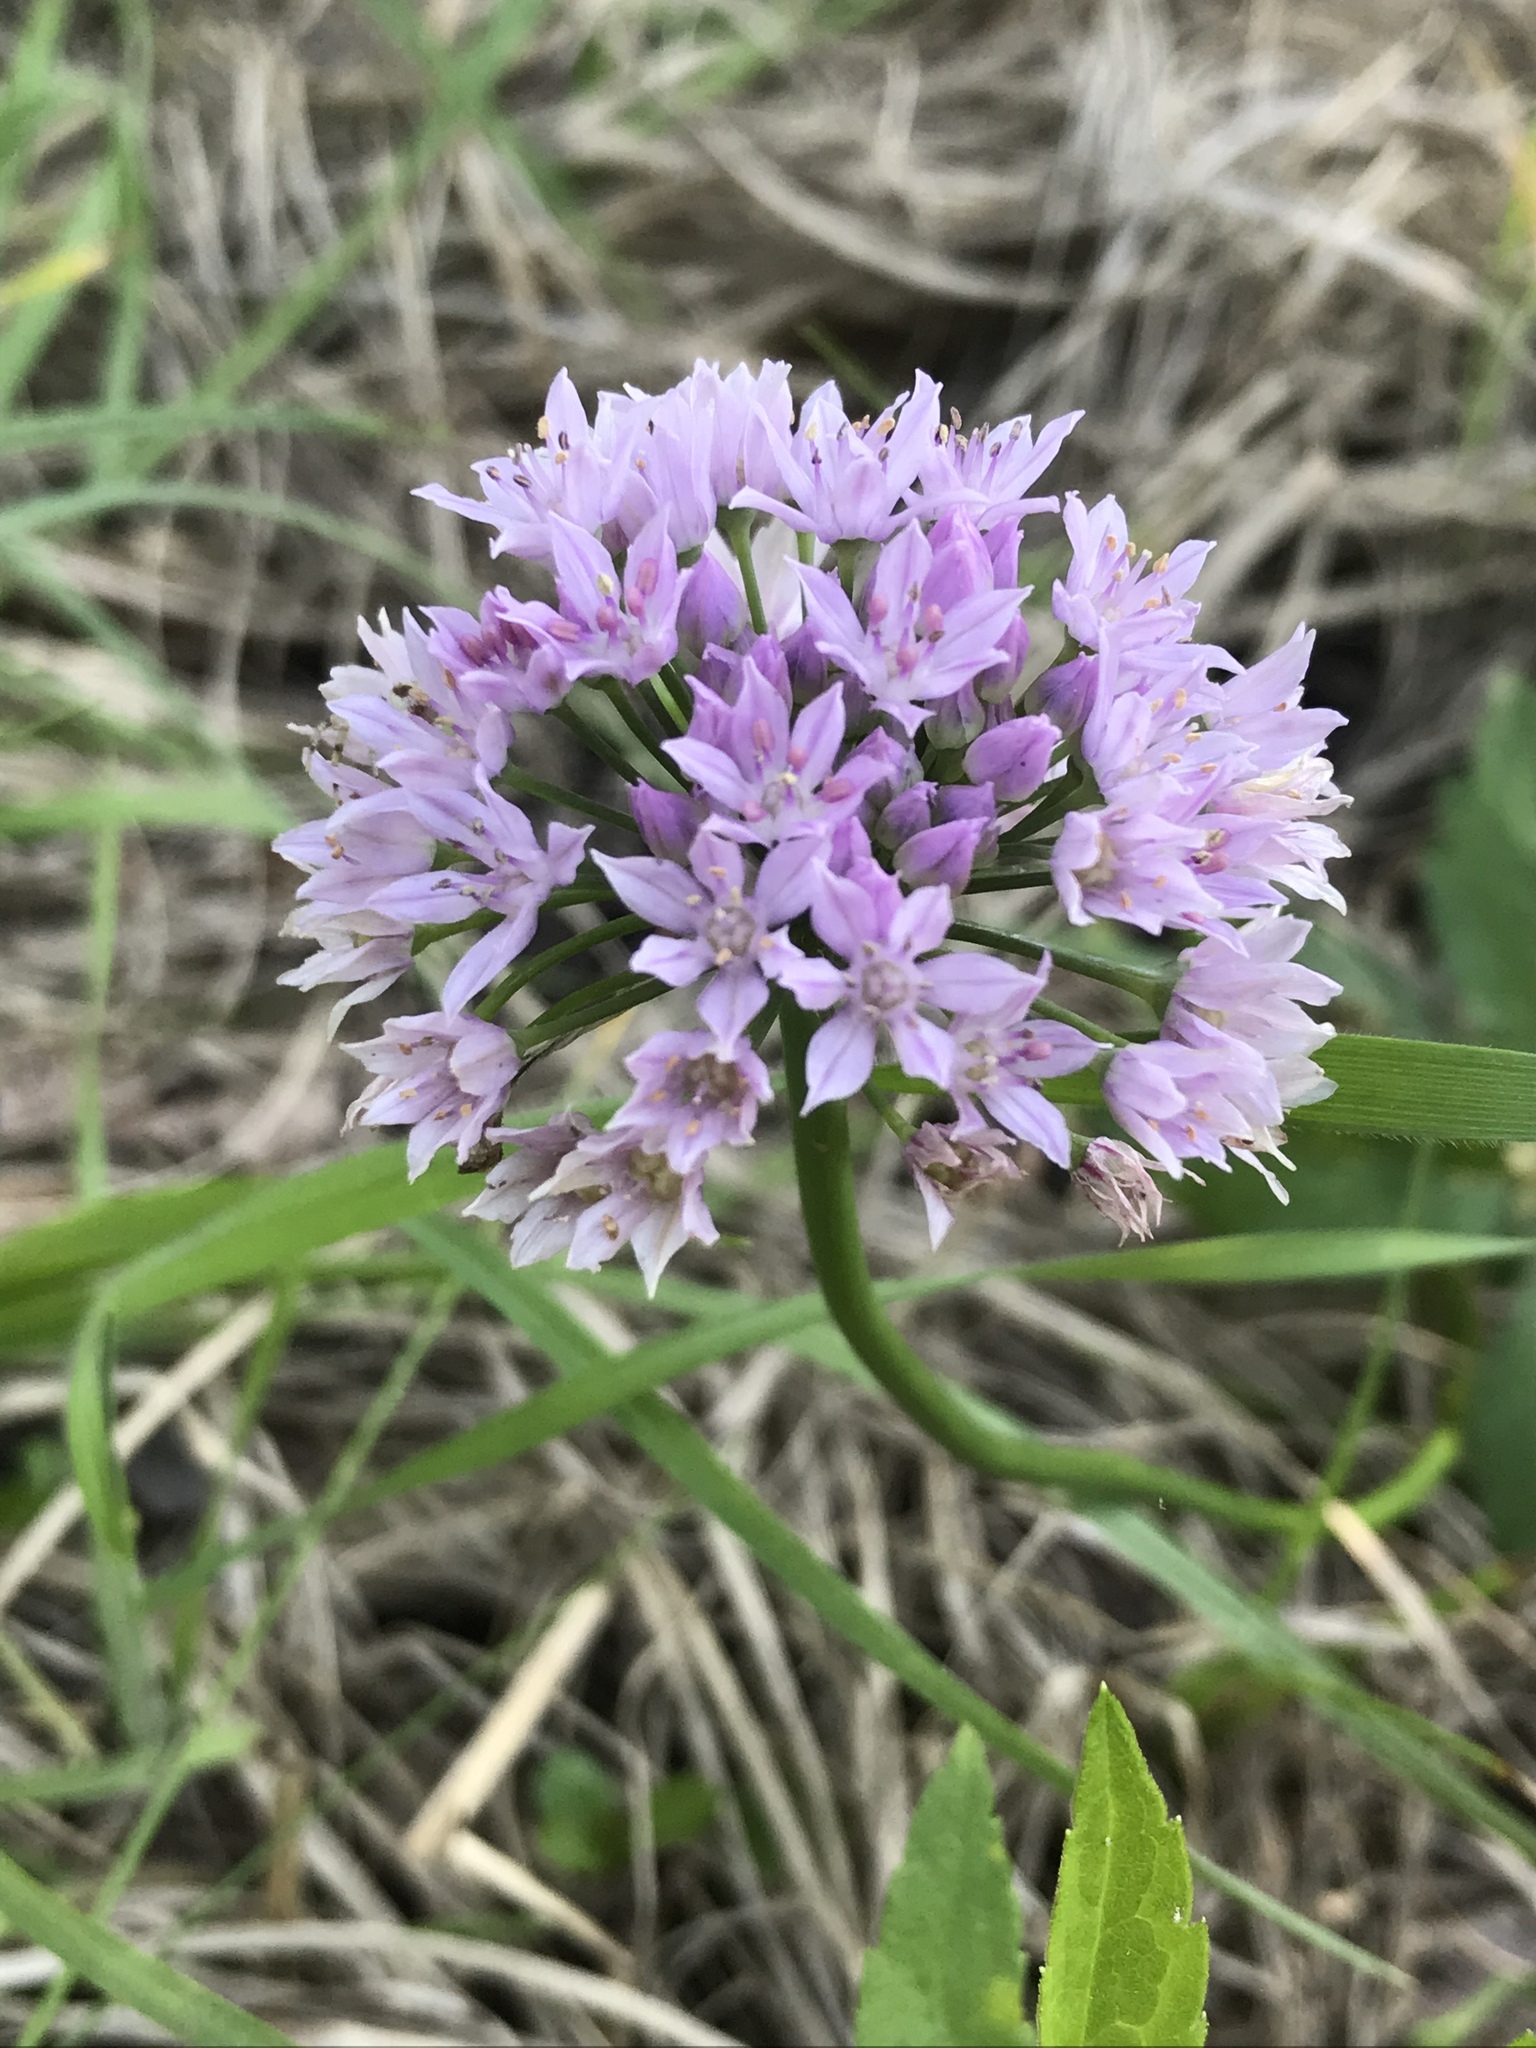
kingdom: Plantae
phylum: Tracheophyta
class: Liliopsida
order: Asparagales
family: Amaryllidaceae
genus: Allium
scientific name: Allium drummondii
